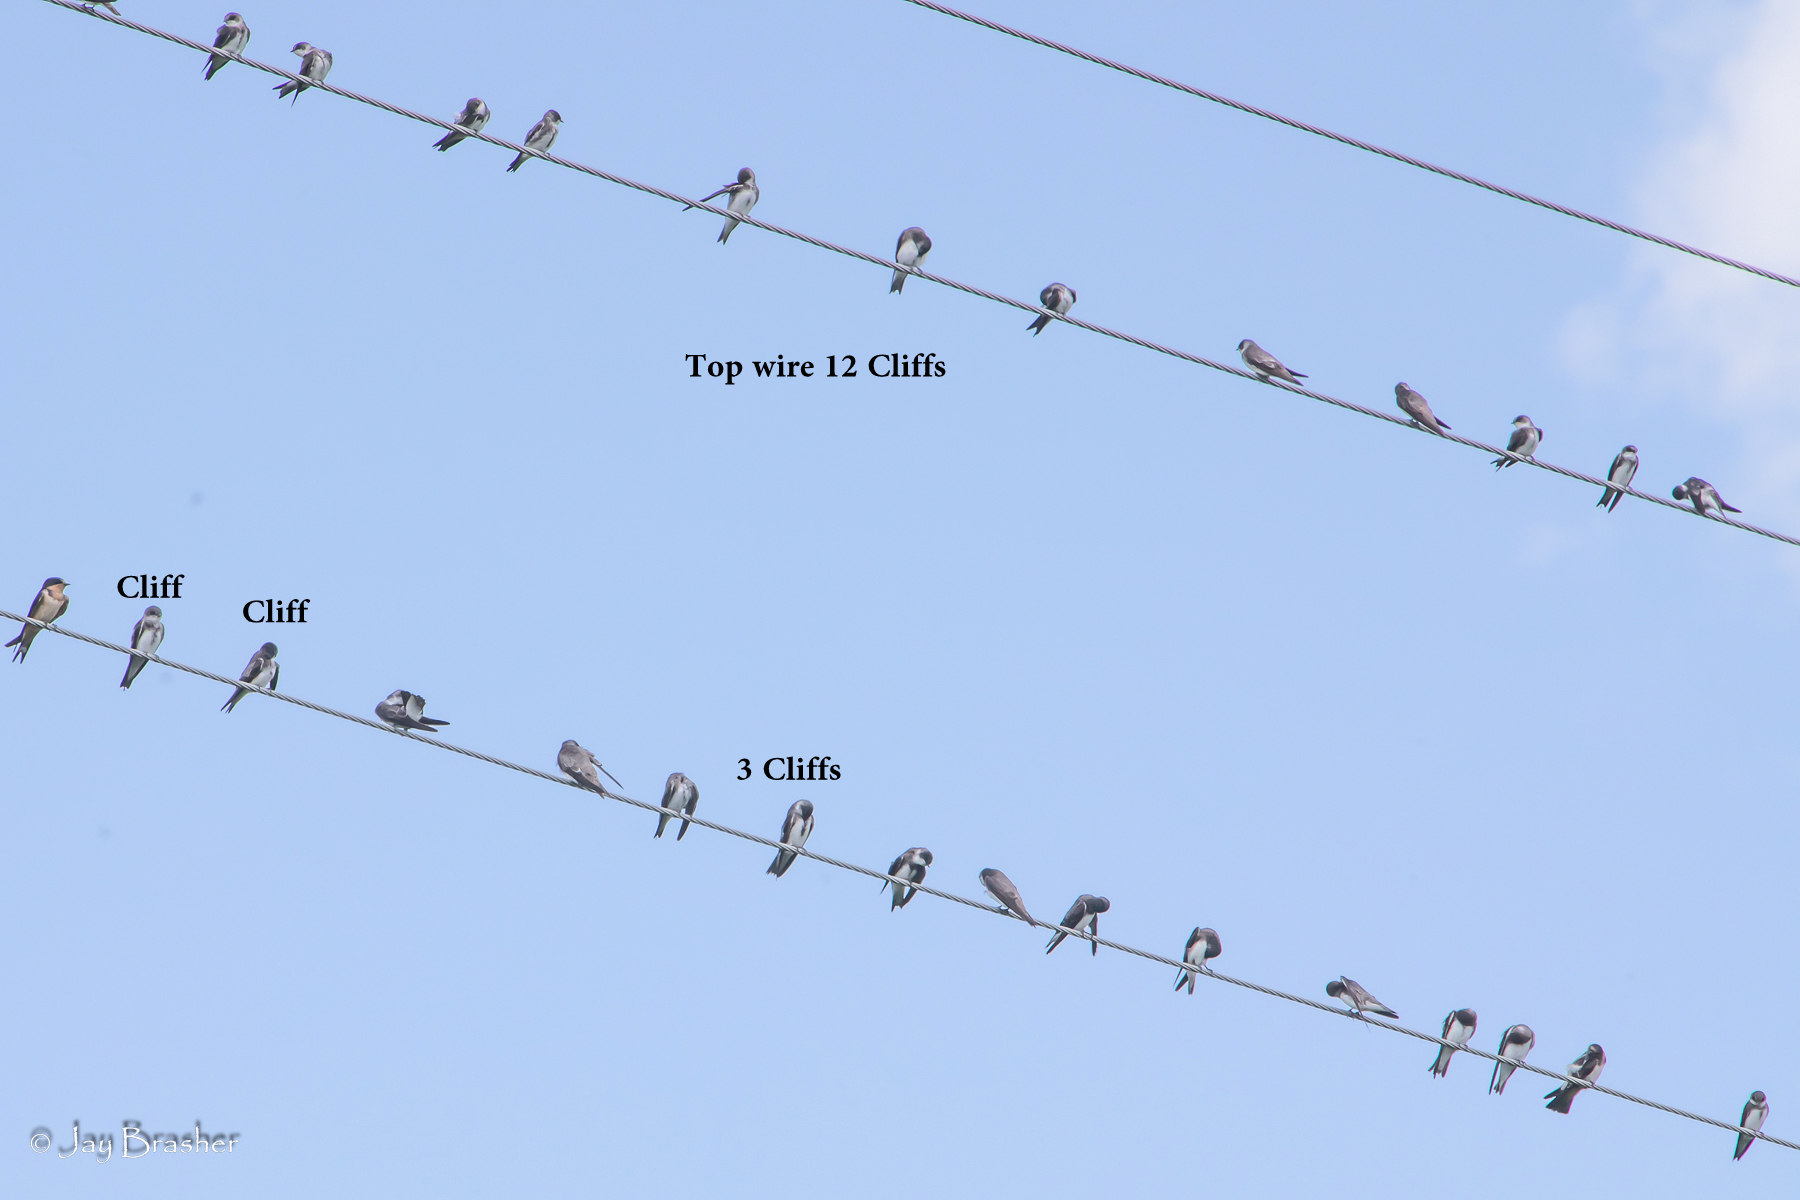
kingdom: Animalia
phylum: Chordata
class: Aves
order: Passeriformes
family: Hirundinidae
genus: Petrochelidon
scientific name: Petrochelidon pyrrhonota
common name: American cliff swallow
